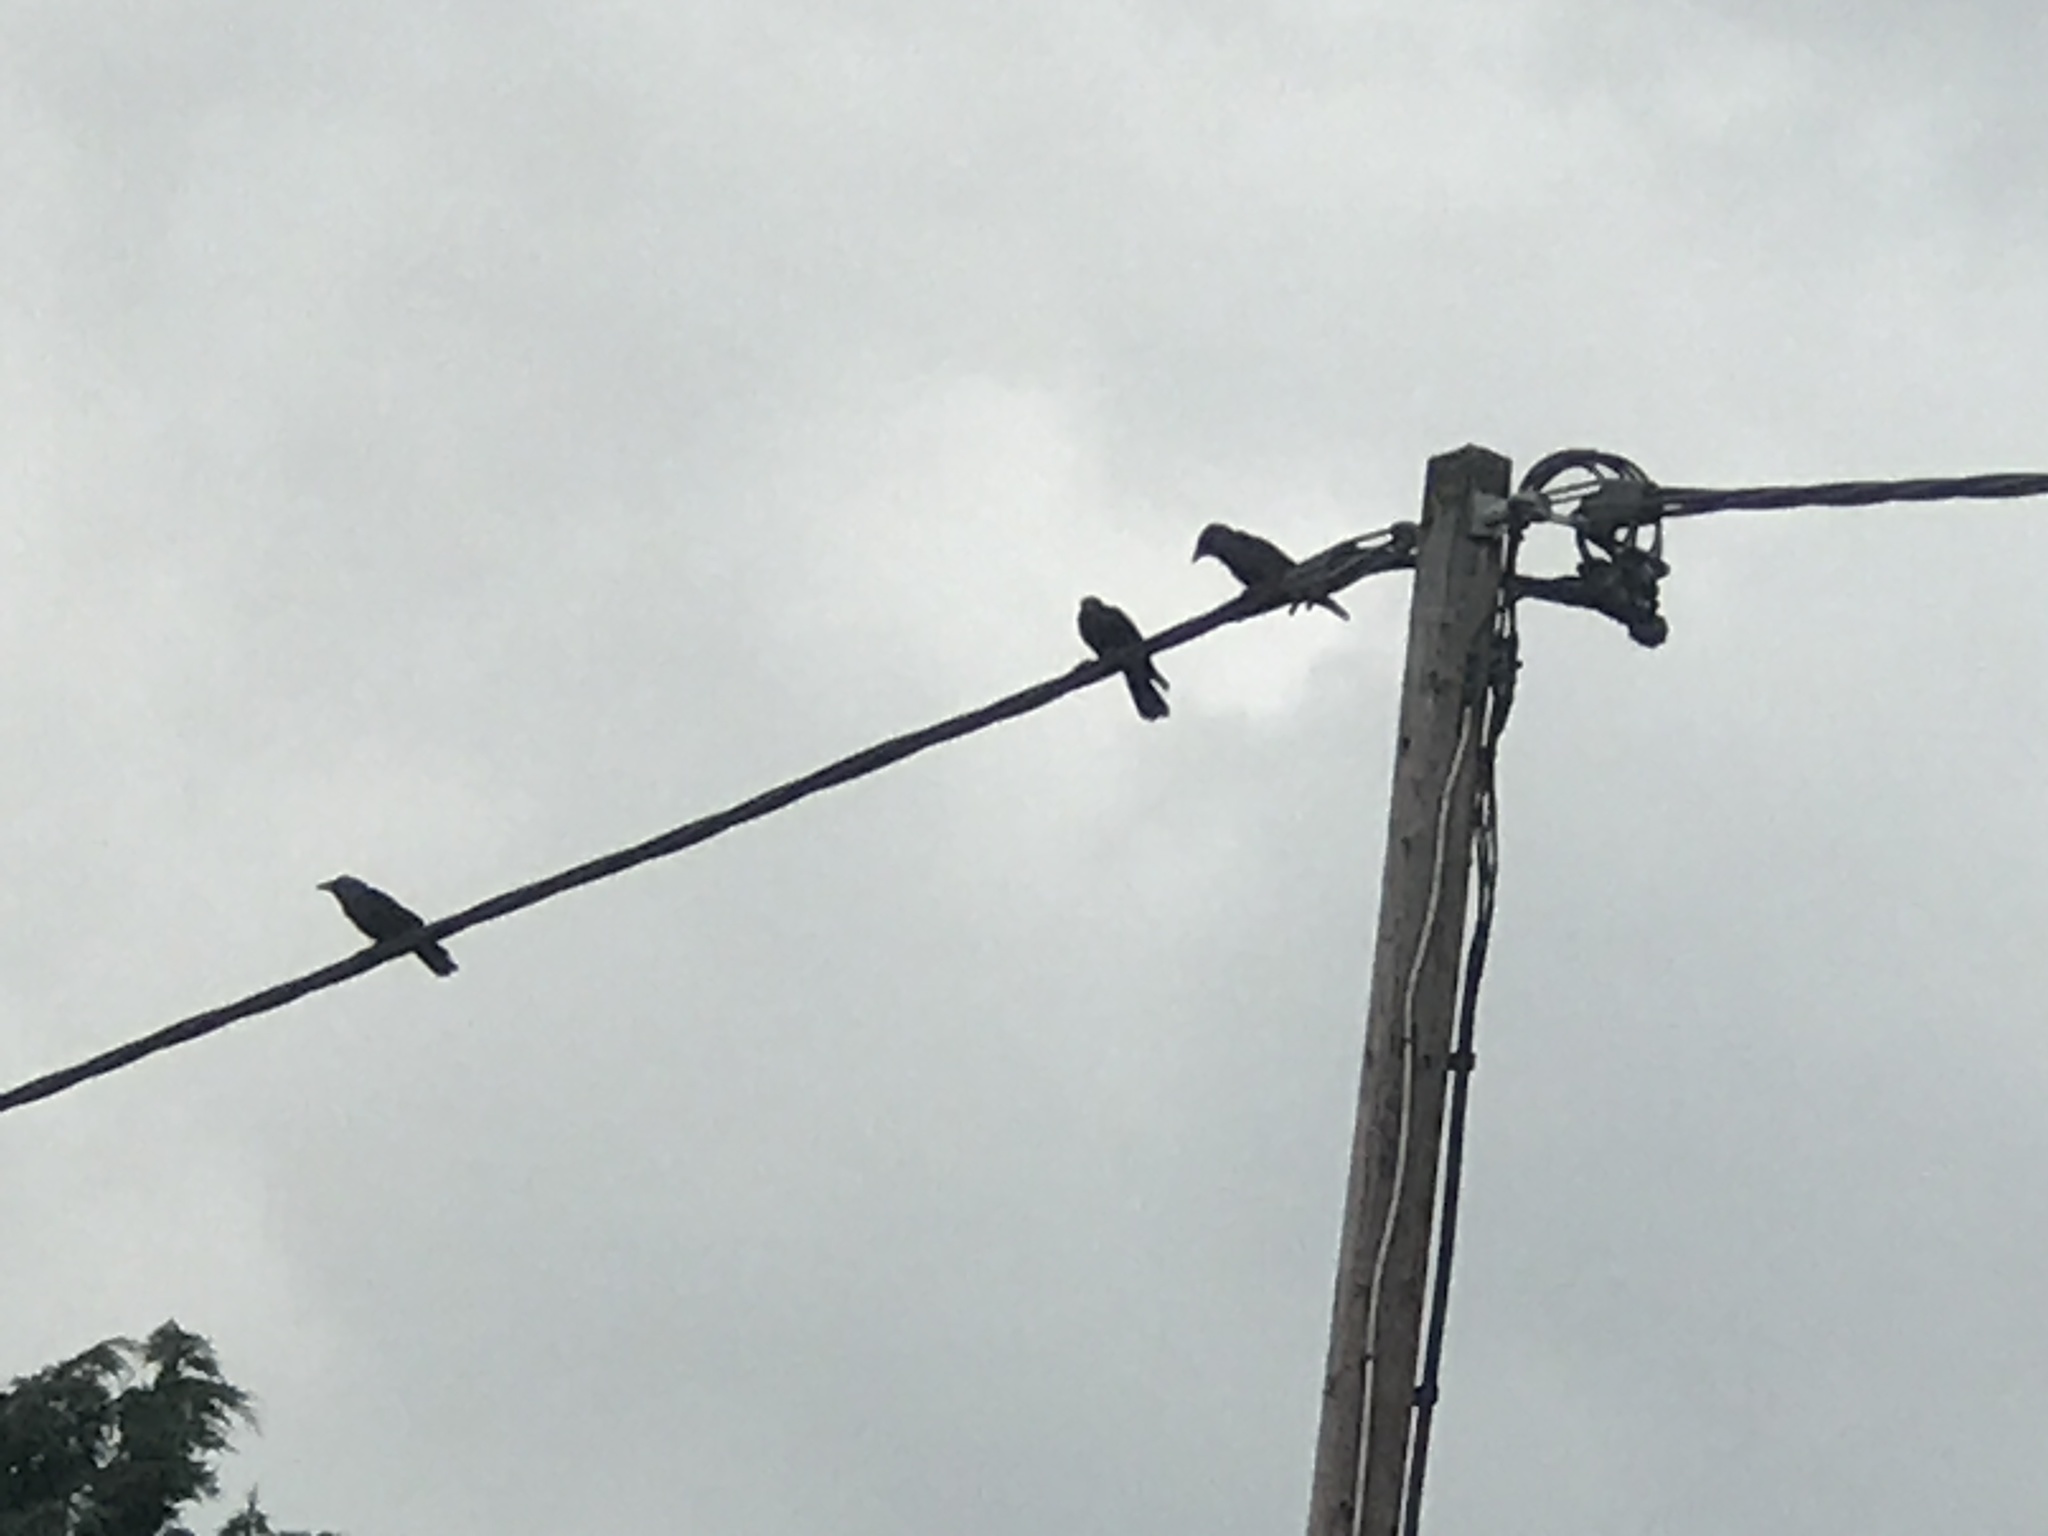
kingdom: Animalia
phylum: Chordata
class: Aves
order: Passeriformes
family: Corvidae
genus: Coloeus
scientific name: Coloeus monedula
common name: Western jackdaw
